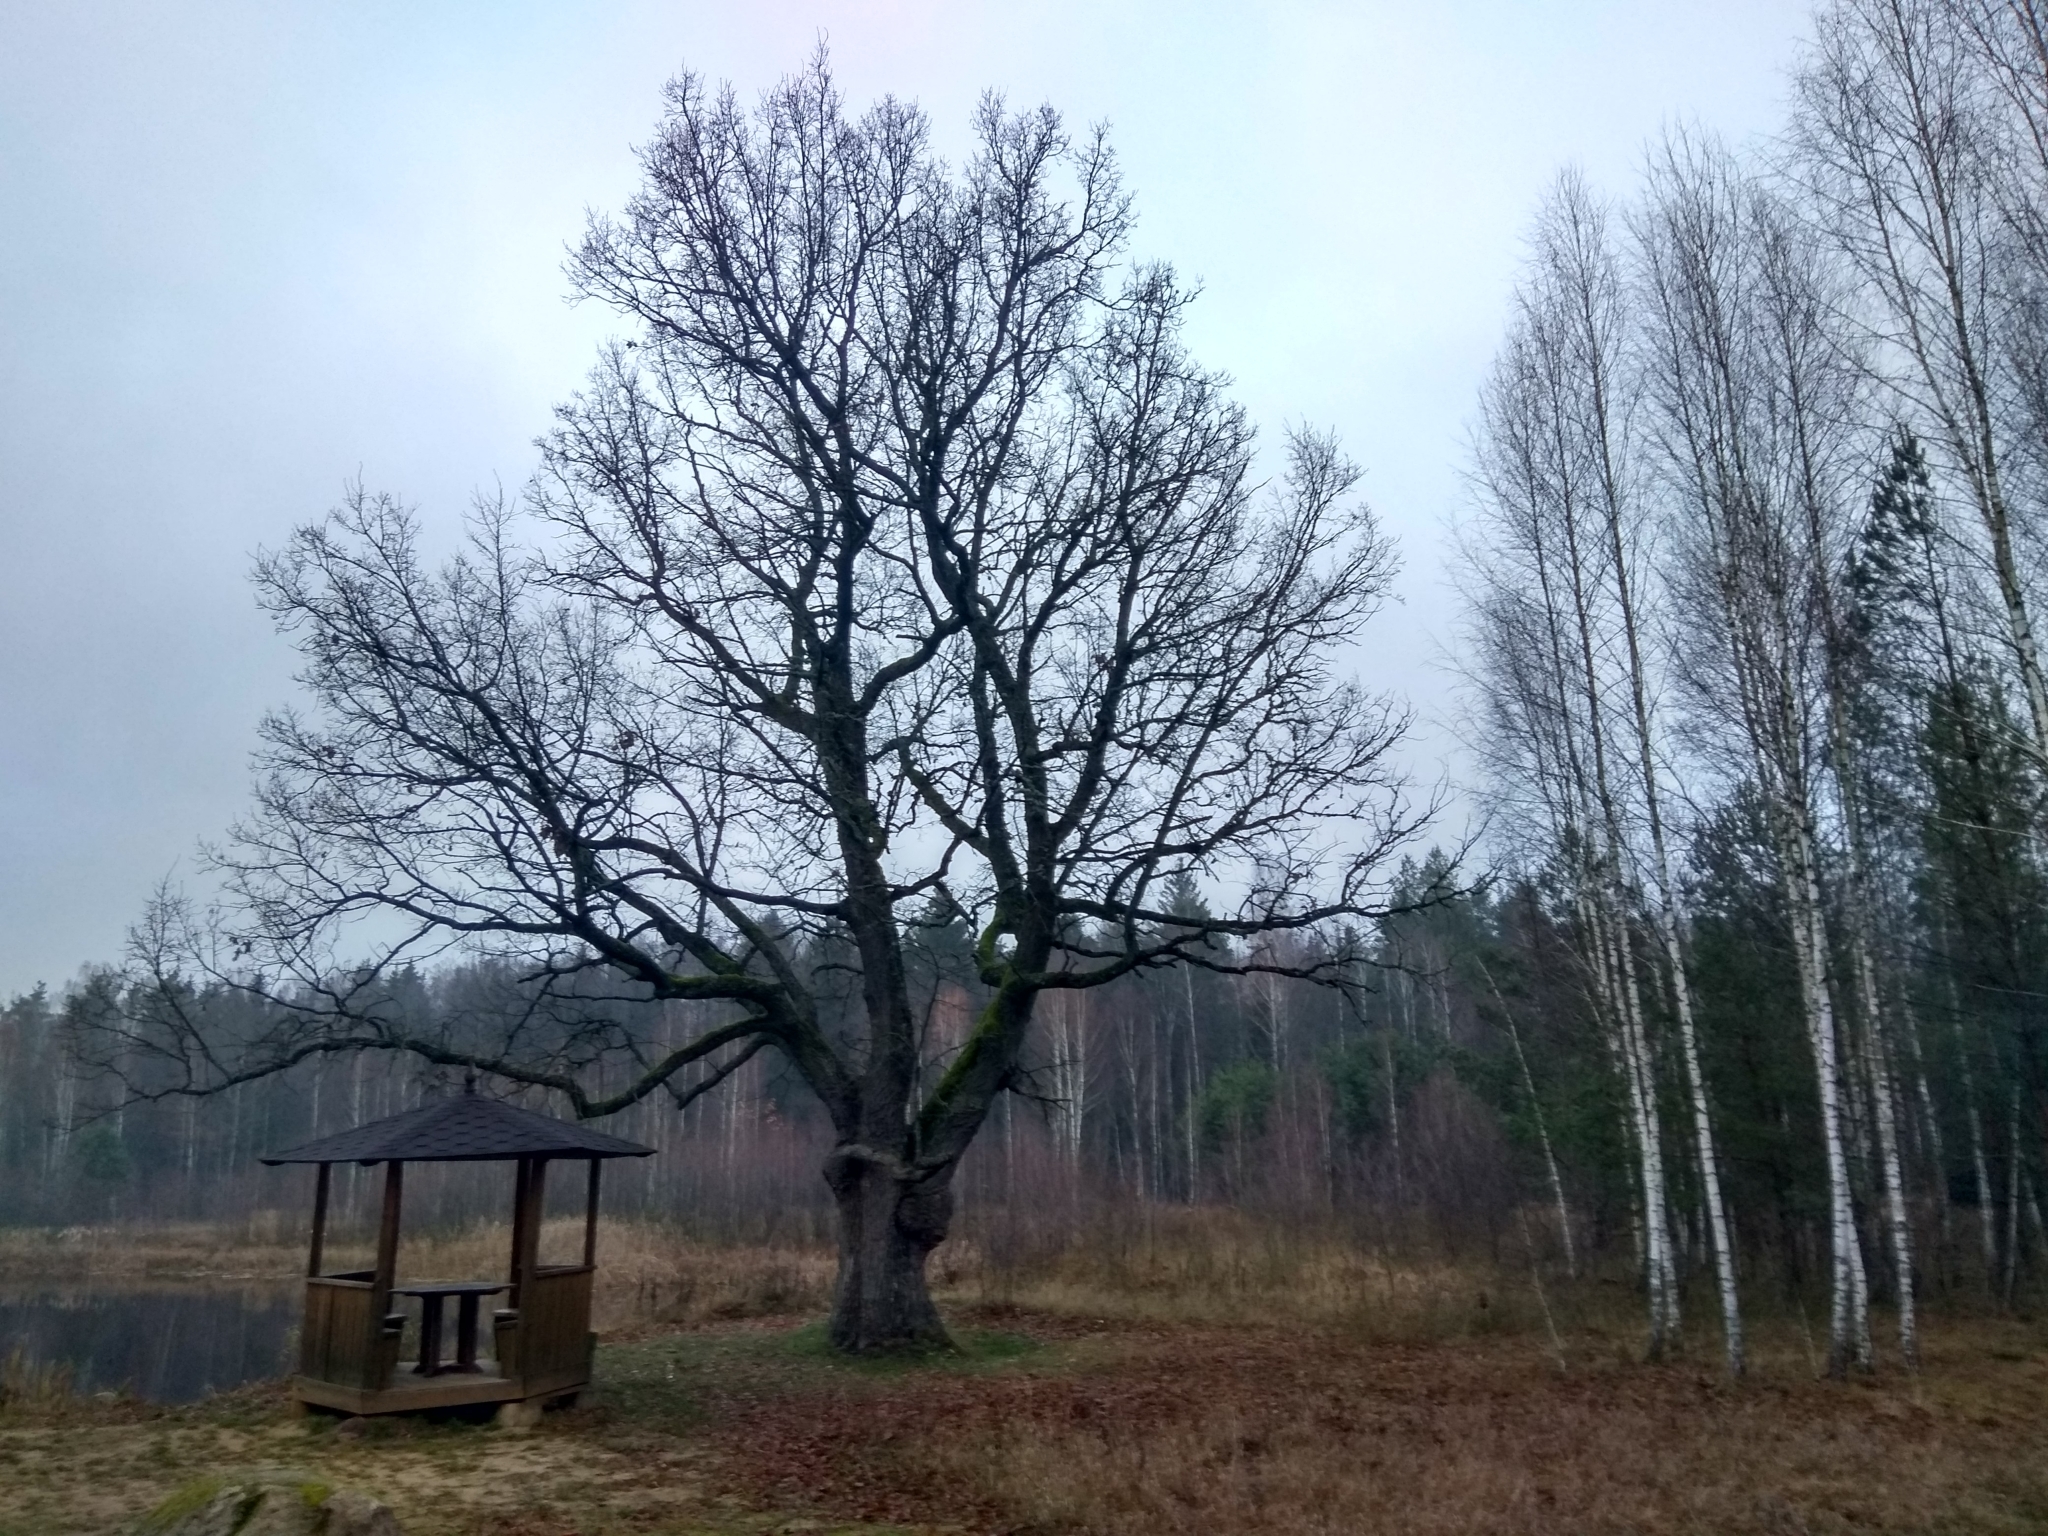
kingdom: Plantae
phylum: Tracheophyta
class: Magnoliopsida
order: Fagales
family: Fagaceae
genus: Quercus
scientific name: Quercus robur
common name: Pedunculate oak
